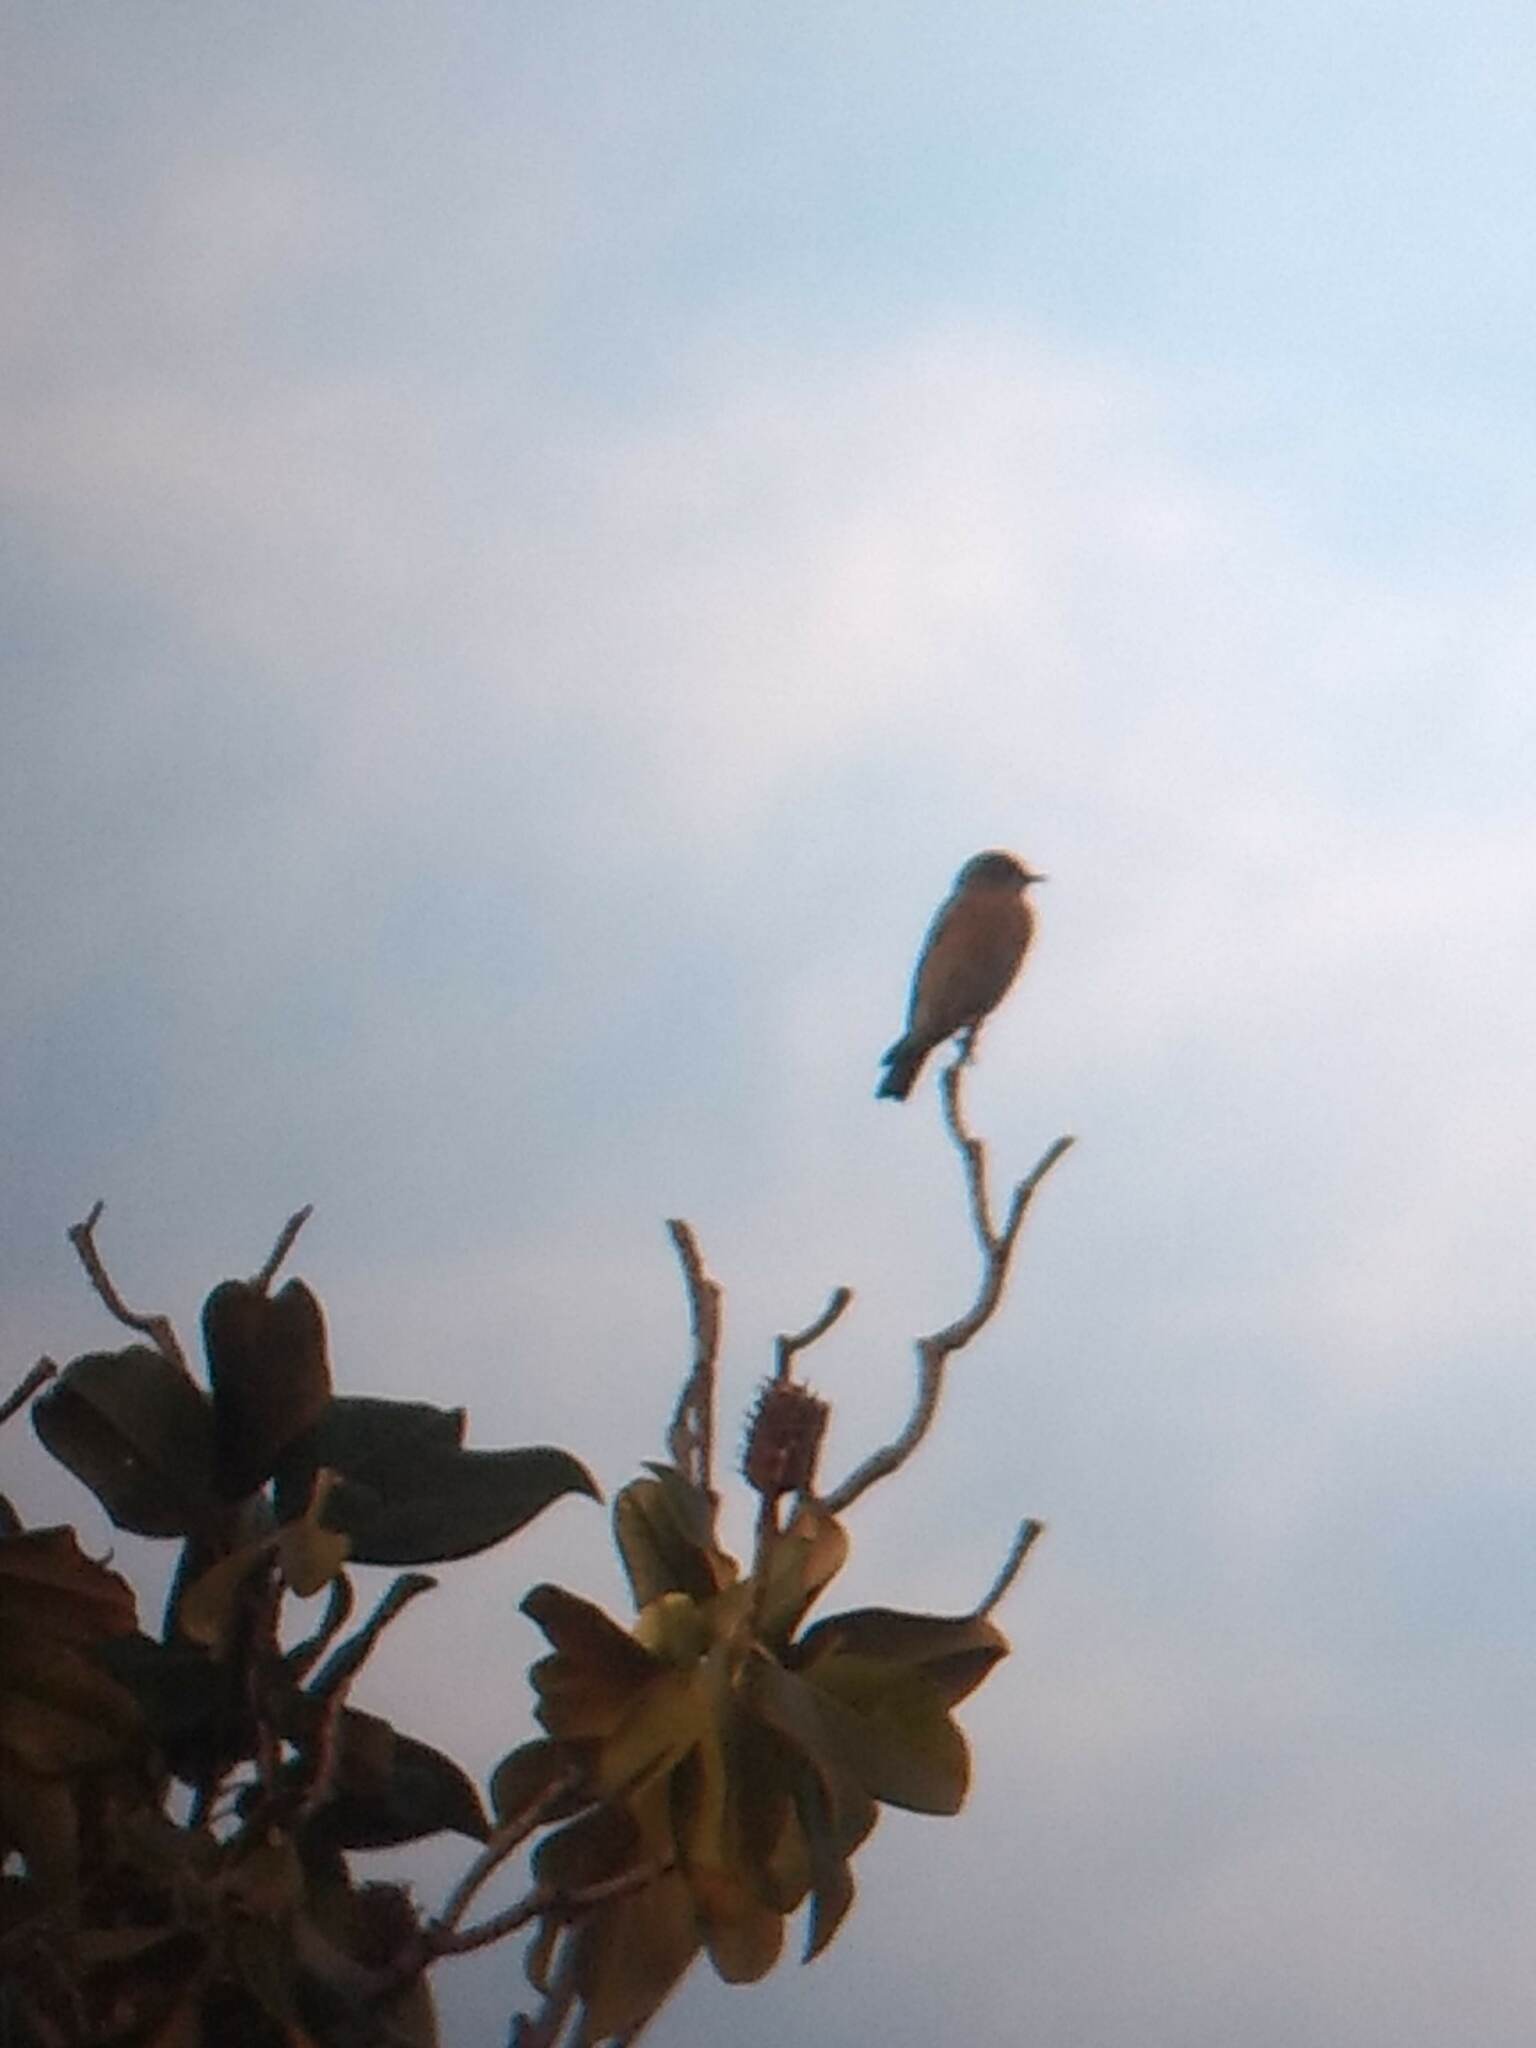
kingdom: Animalia
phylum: Chordata
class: Aves
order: Passeriformes
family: Turdidae
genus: Sialia
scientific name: Sialia mexicana
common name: Western bluebird
